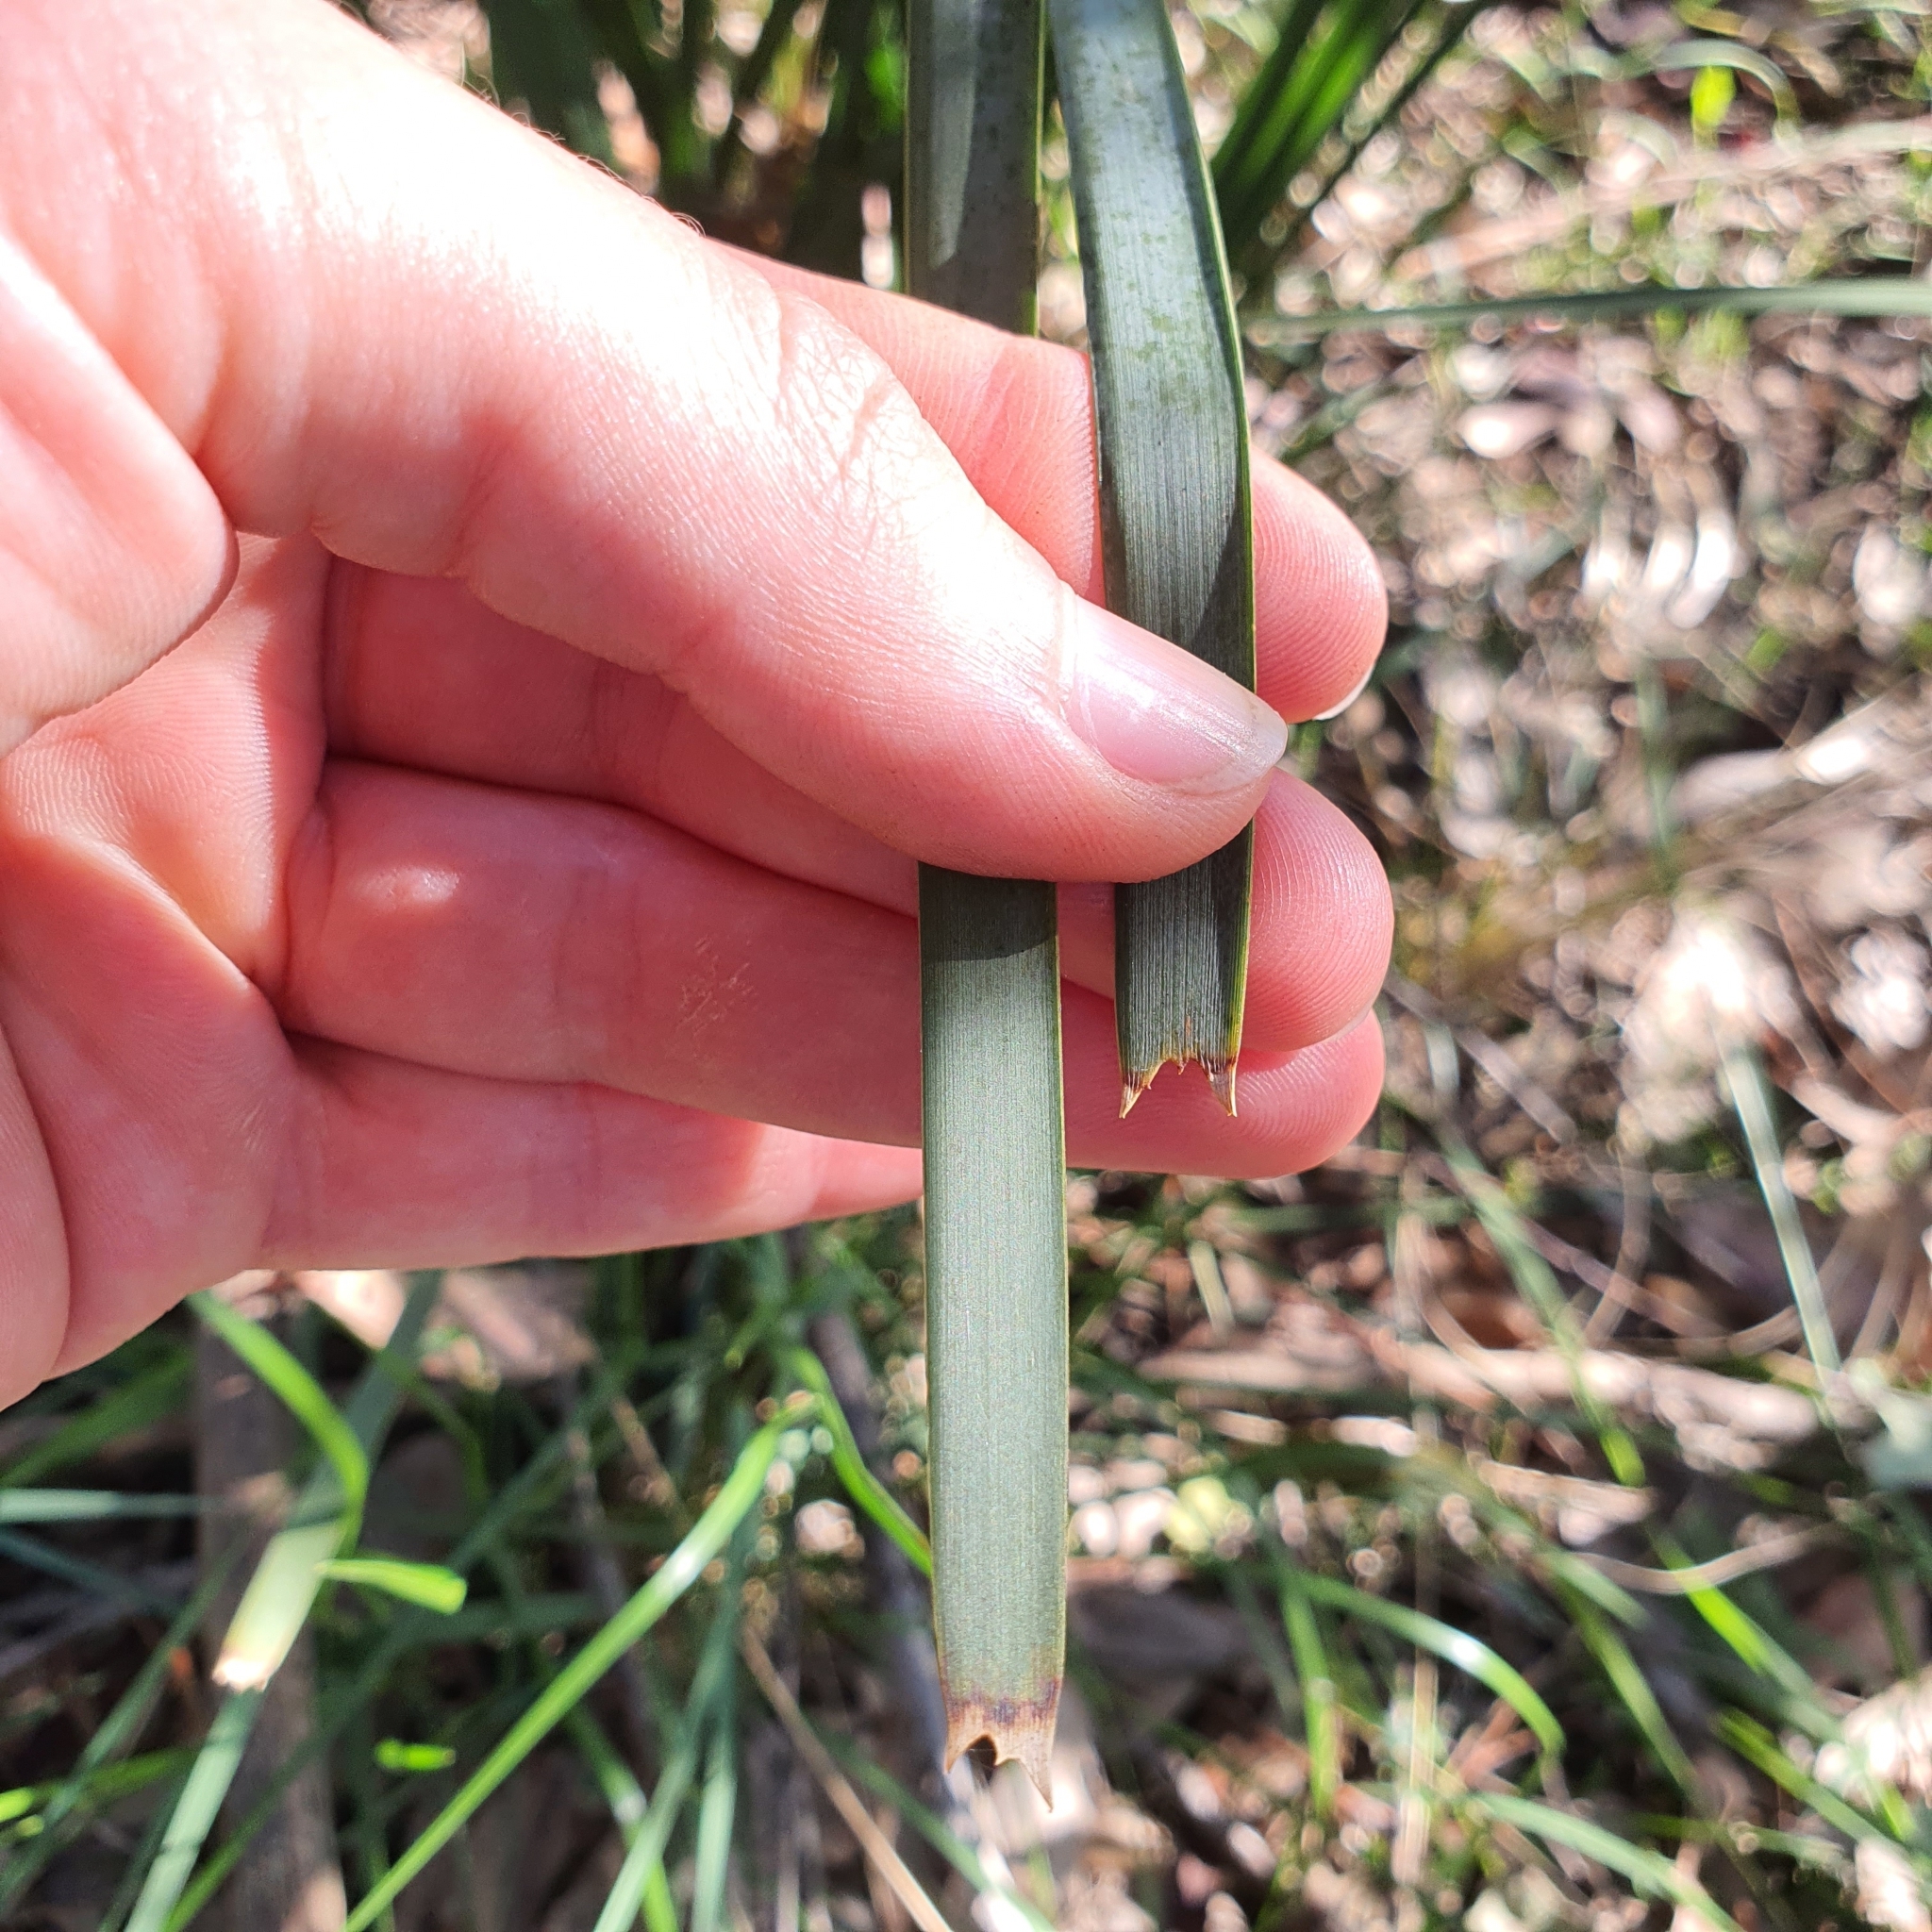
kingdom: Plantae
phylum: Tracheophyta
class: Liliopsida
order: Asparagales
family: Asparagaceae
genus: Lomandra
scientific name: Lomandra longifolia
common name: Longleaf mat-rush
